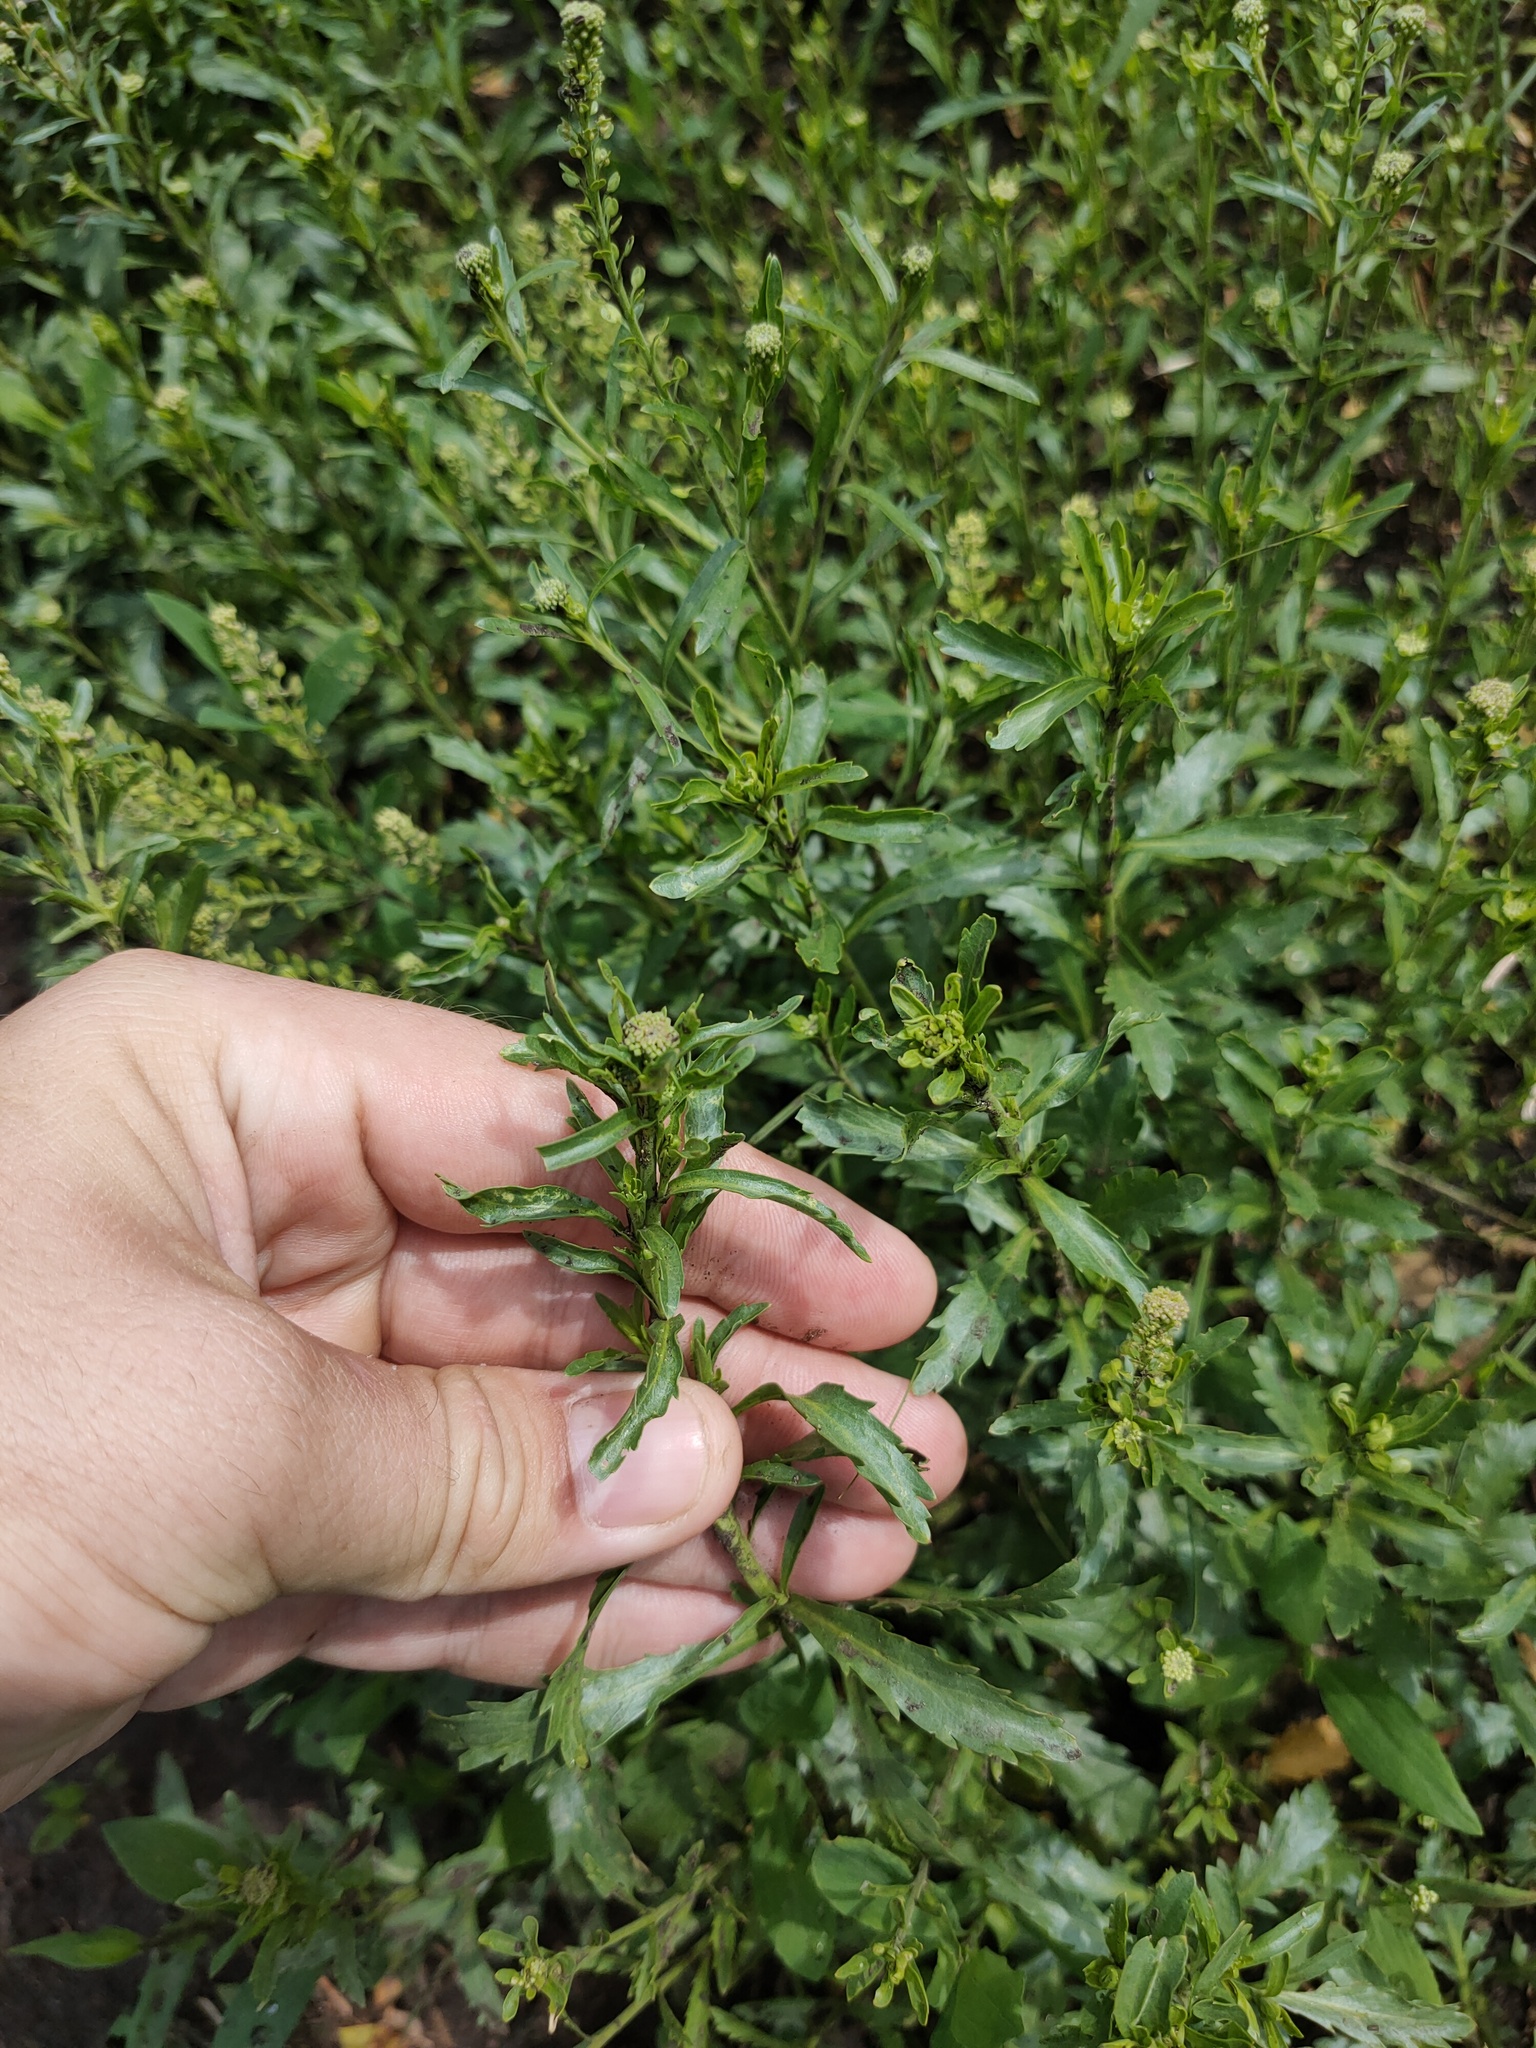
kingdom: Plantae
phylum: Tracheophyta
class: Magnoliopsida
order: Brassicales
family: Brassicaceae
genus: Lepidium
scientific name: Lepidium densiflorum
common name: Miner's pepperwort
